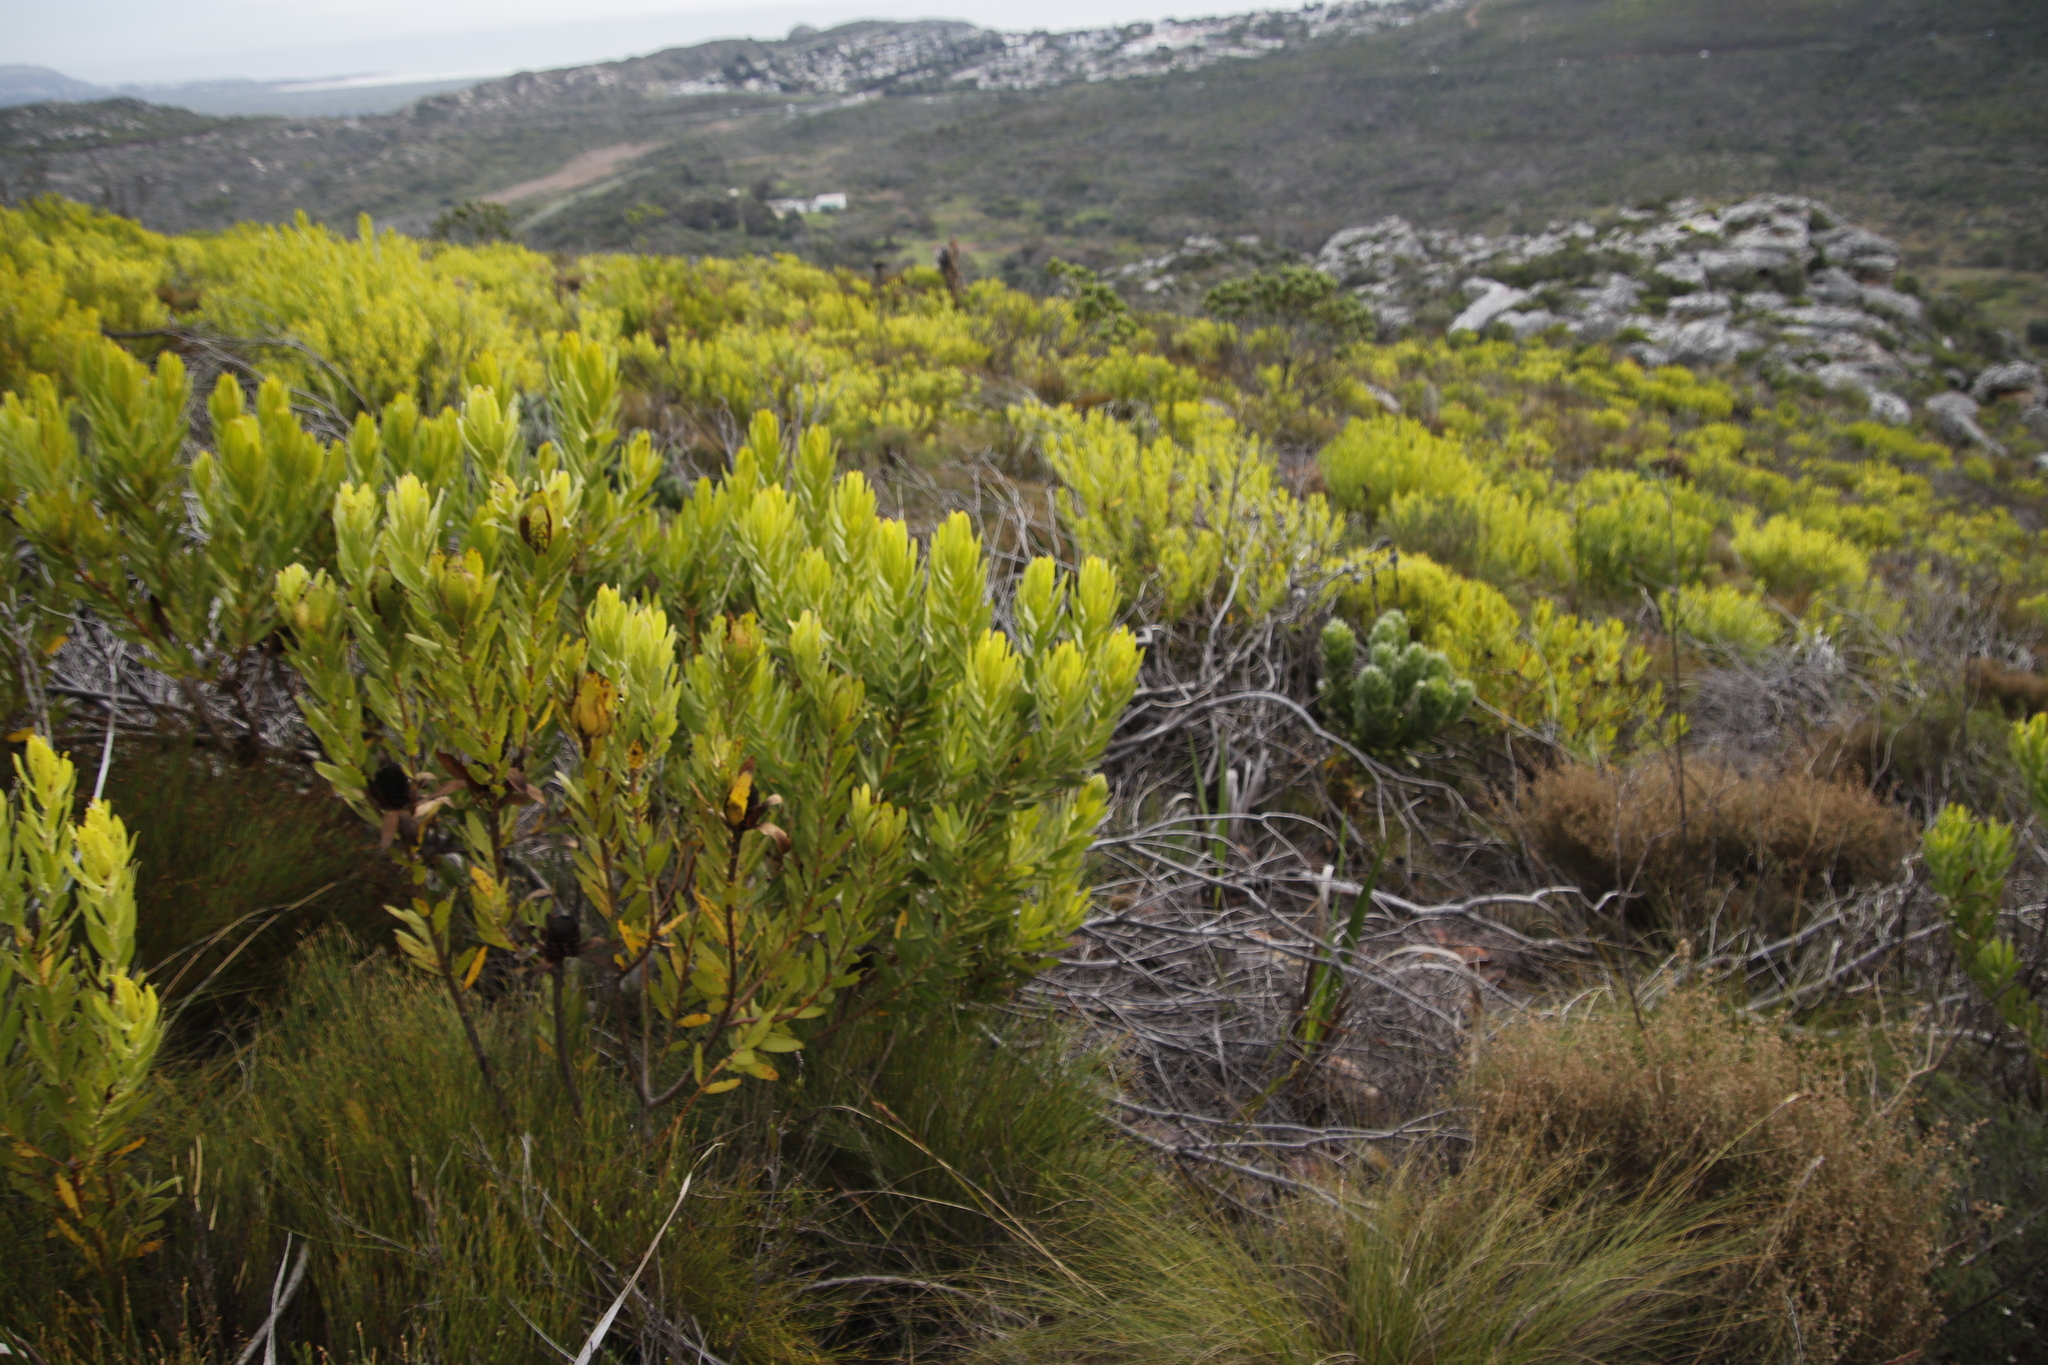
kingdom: Plantae
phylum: Tracheophyta
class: Magnoliopsida
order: Proteales
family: Proteaceae
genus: Leucadendron
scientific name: Leucadendron laureolum
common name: Golden sunshinebush
